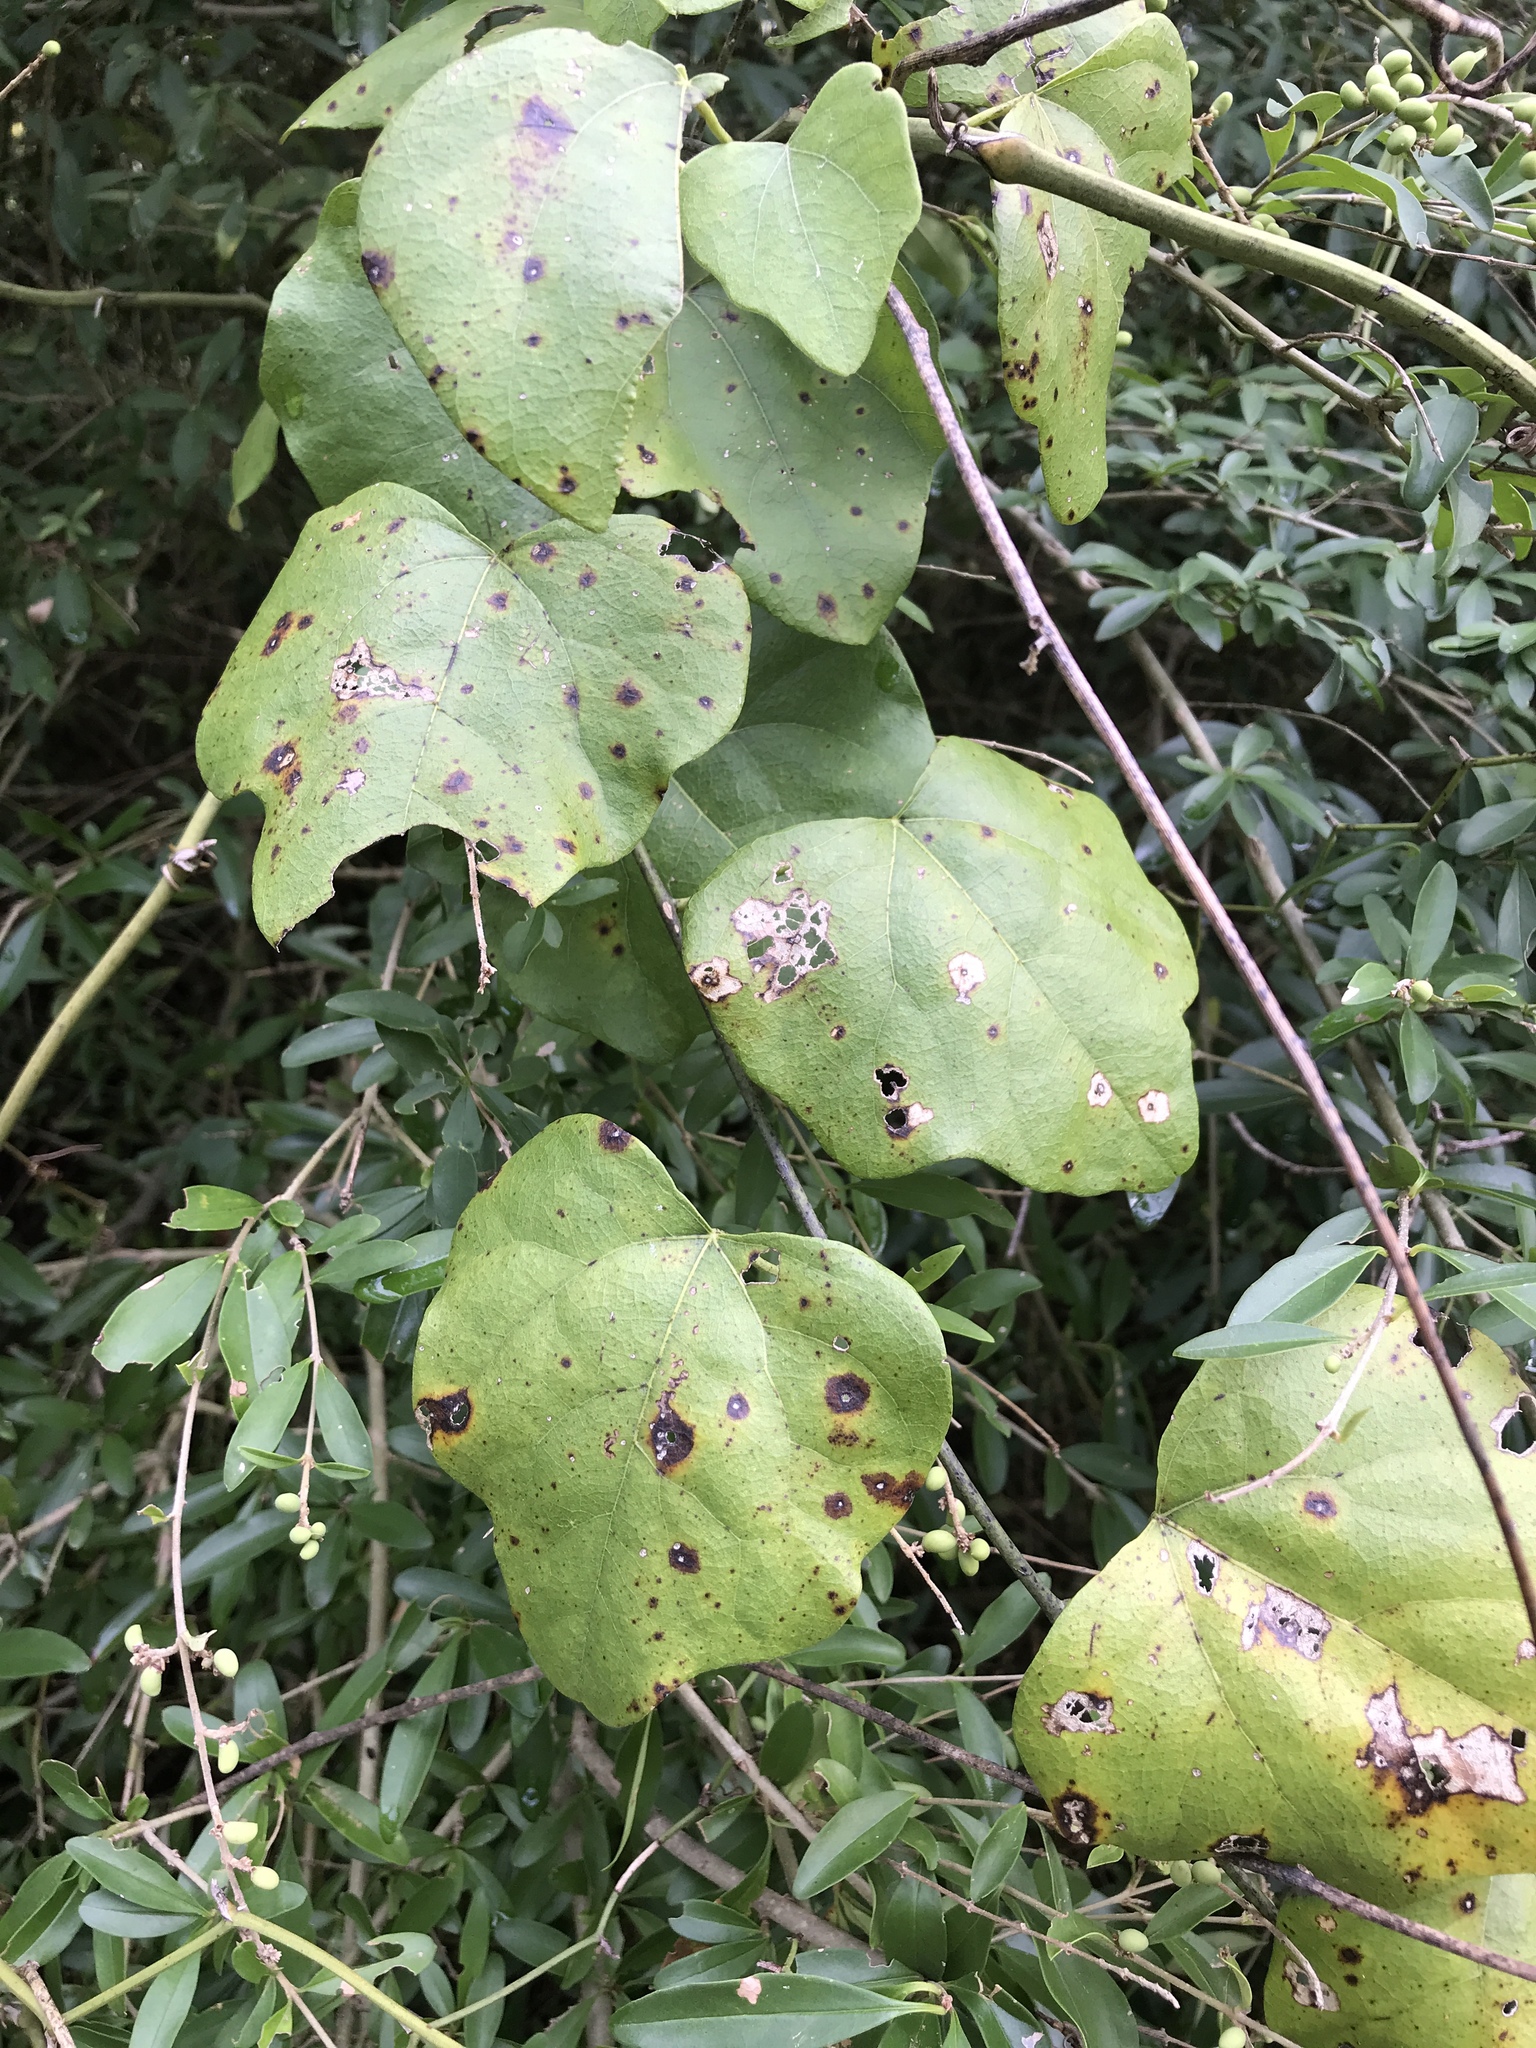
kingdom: Plantae
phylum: Tracheophyta
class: Magnoliopsida
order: Ranunculales
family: Menispermaceae
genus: Cocculus
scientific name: Cocculus carolinus
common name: Carolina moonseed
